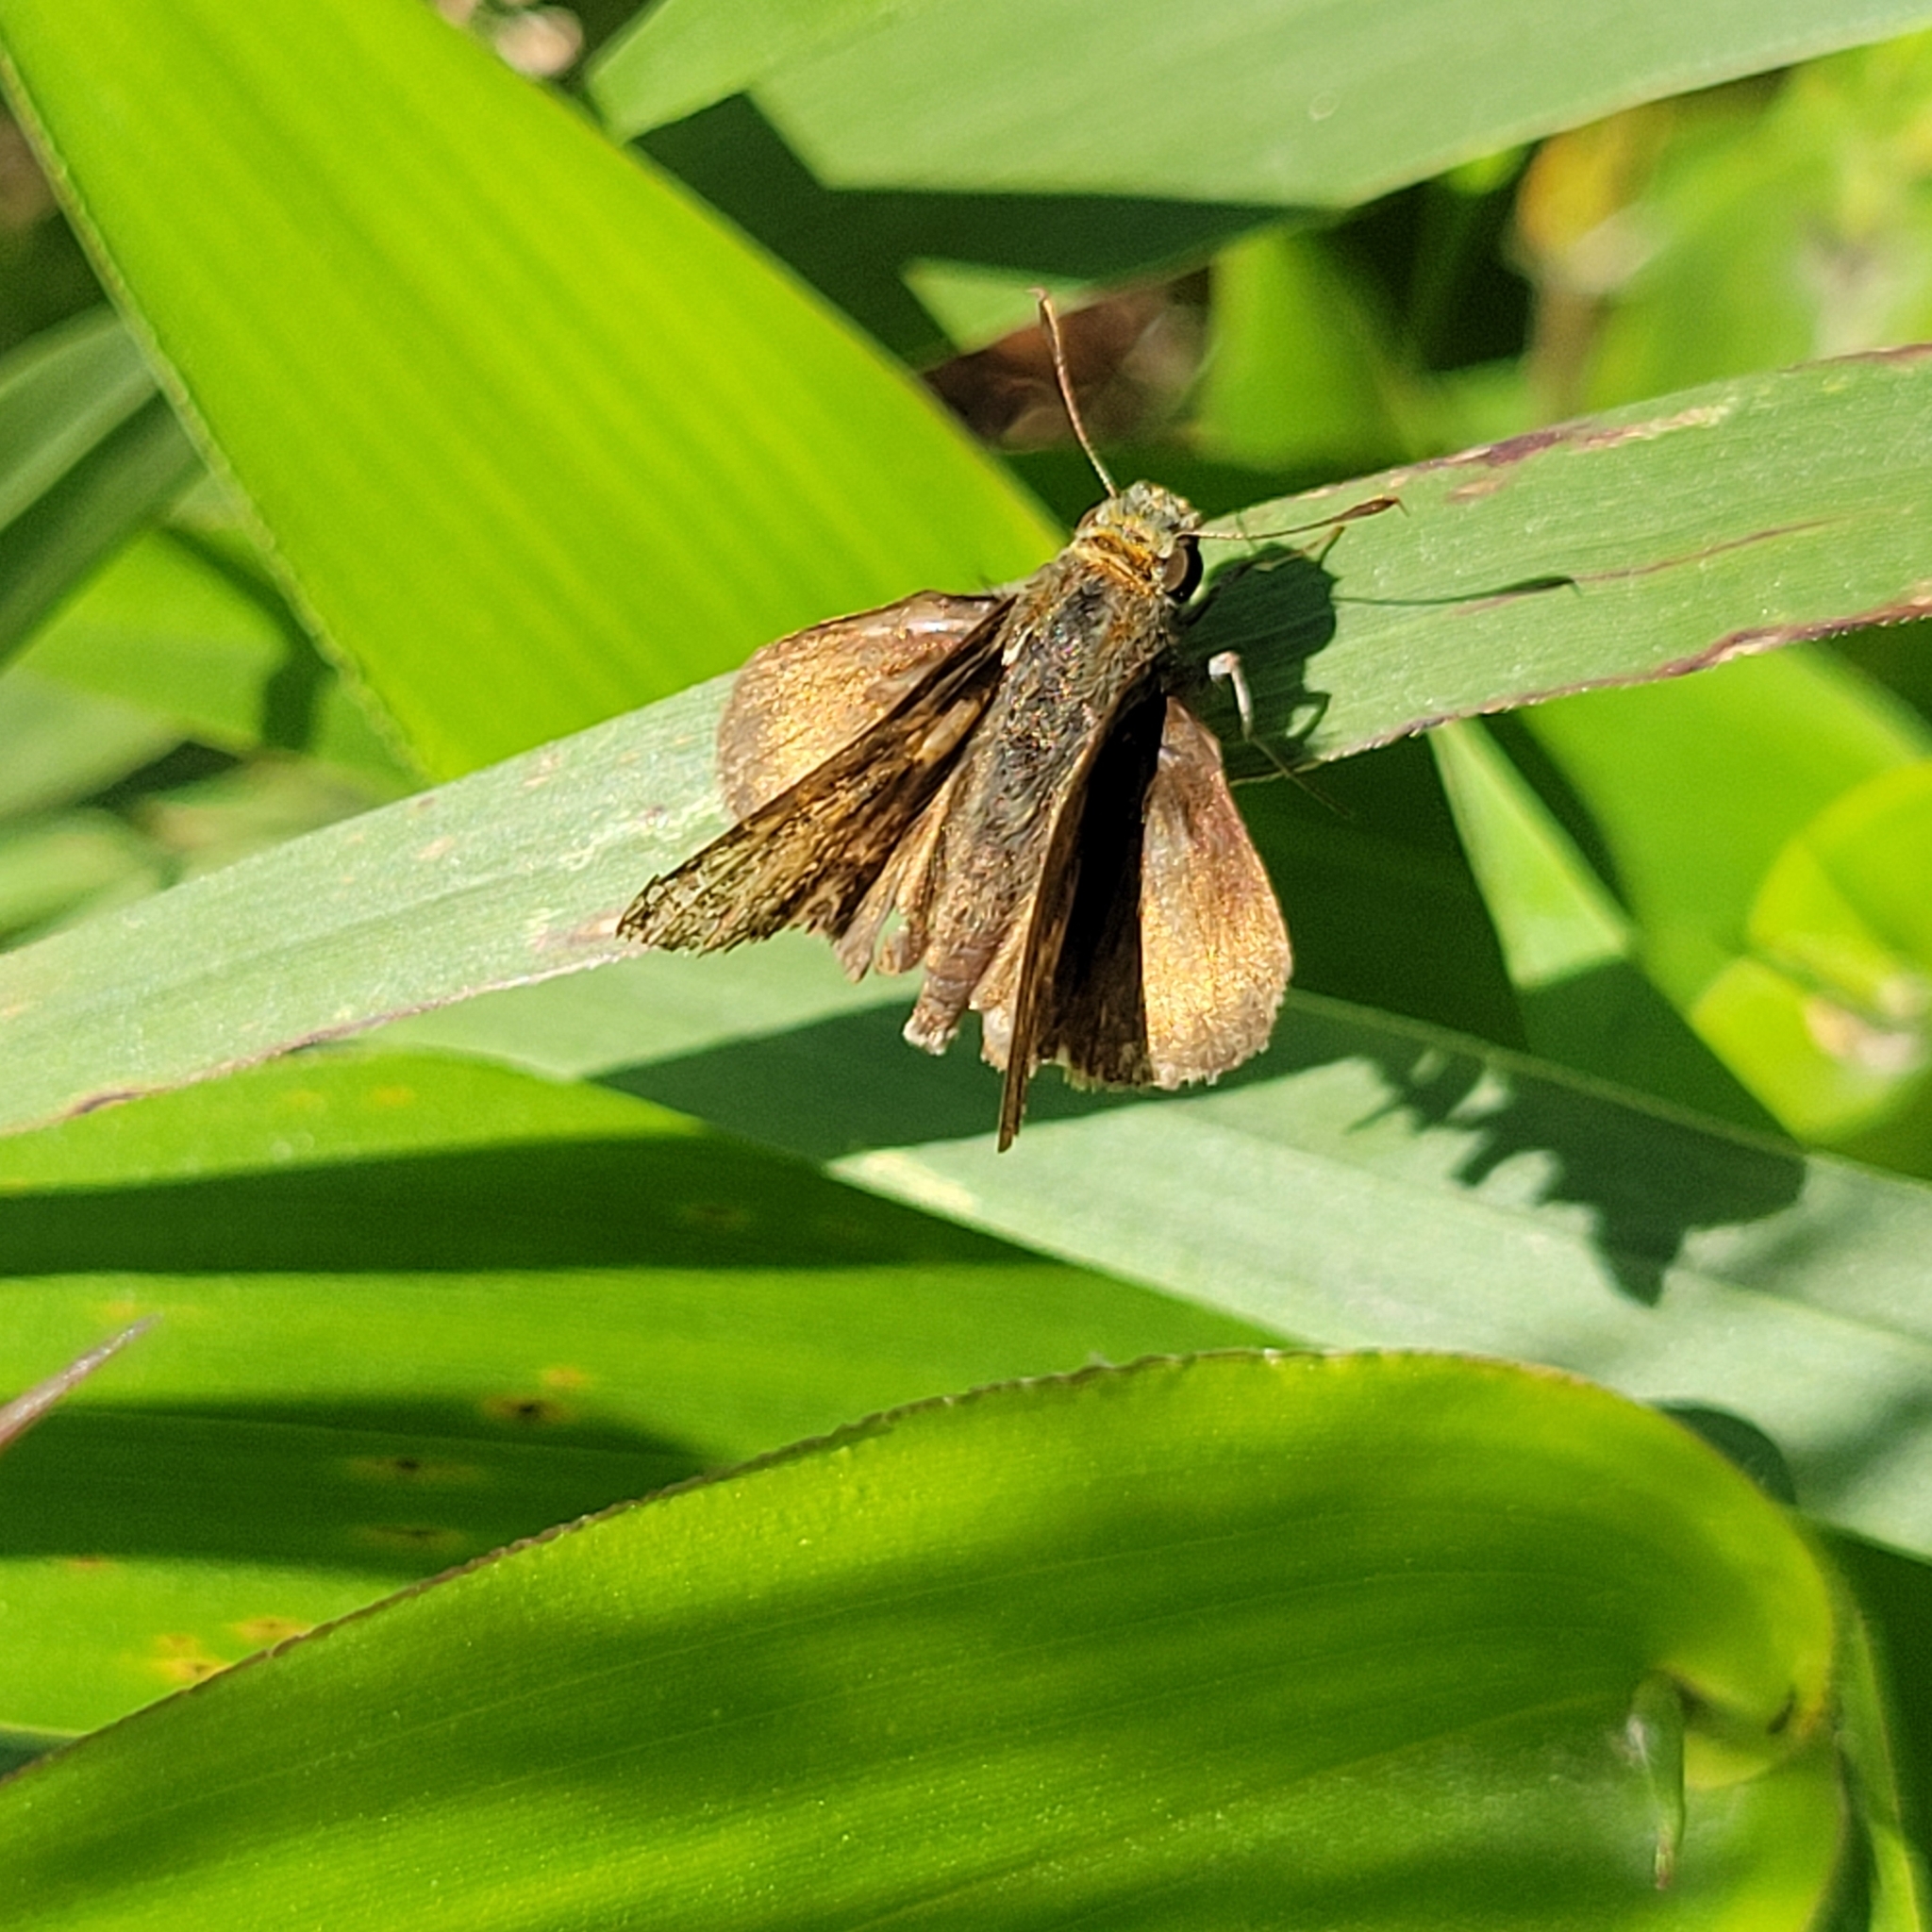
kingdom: Animalia
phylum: Arthropoda
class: Insecta
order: Lepidoptera
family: Hesperiidae
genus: Euphyes
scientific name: Euphyes vestris
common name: Dun skipper
